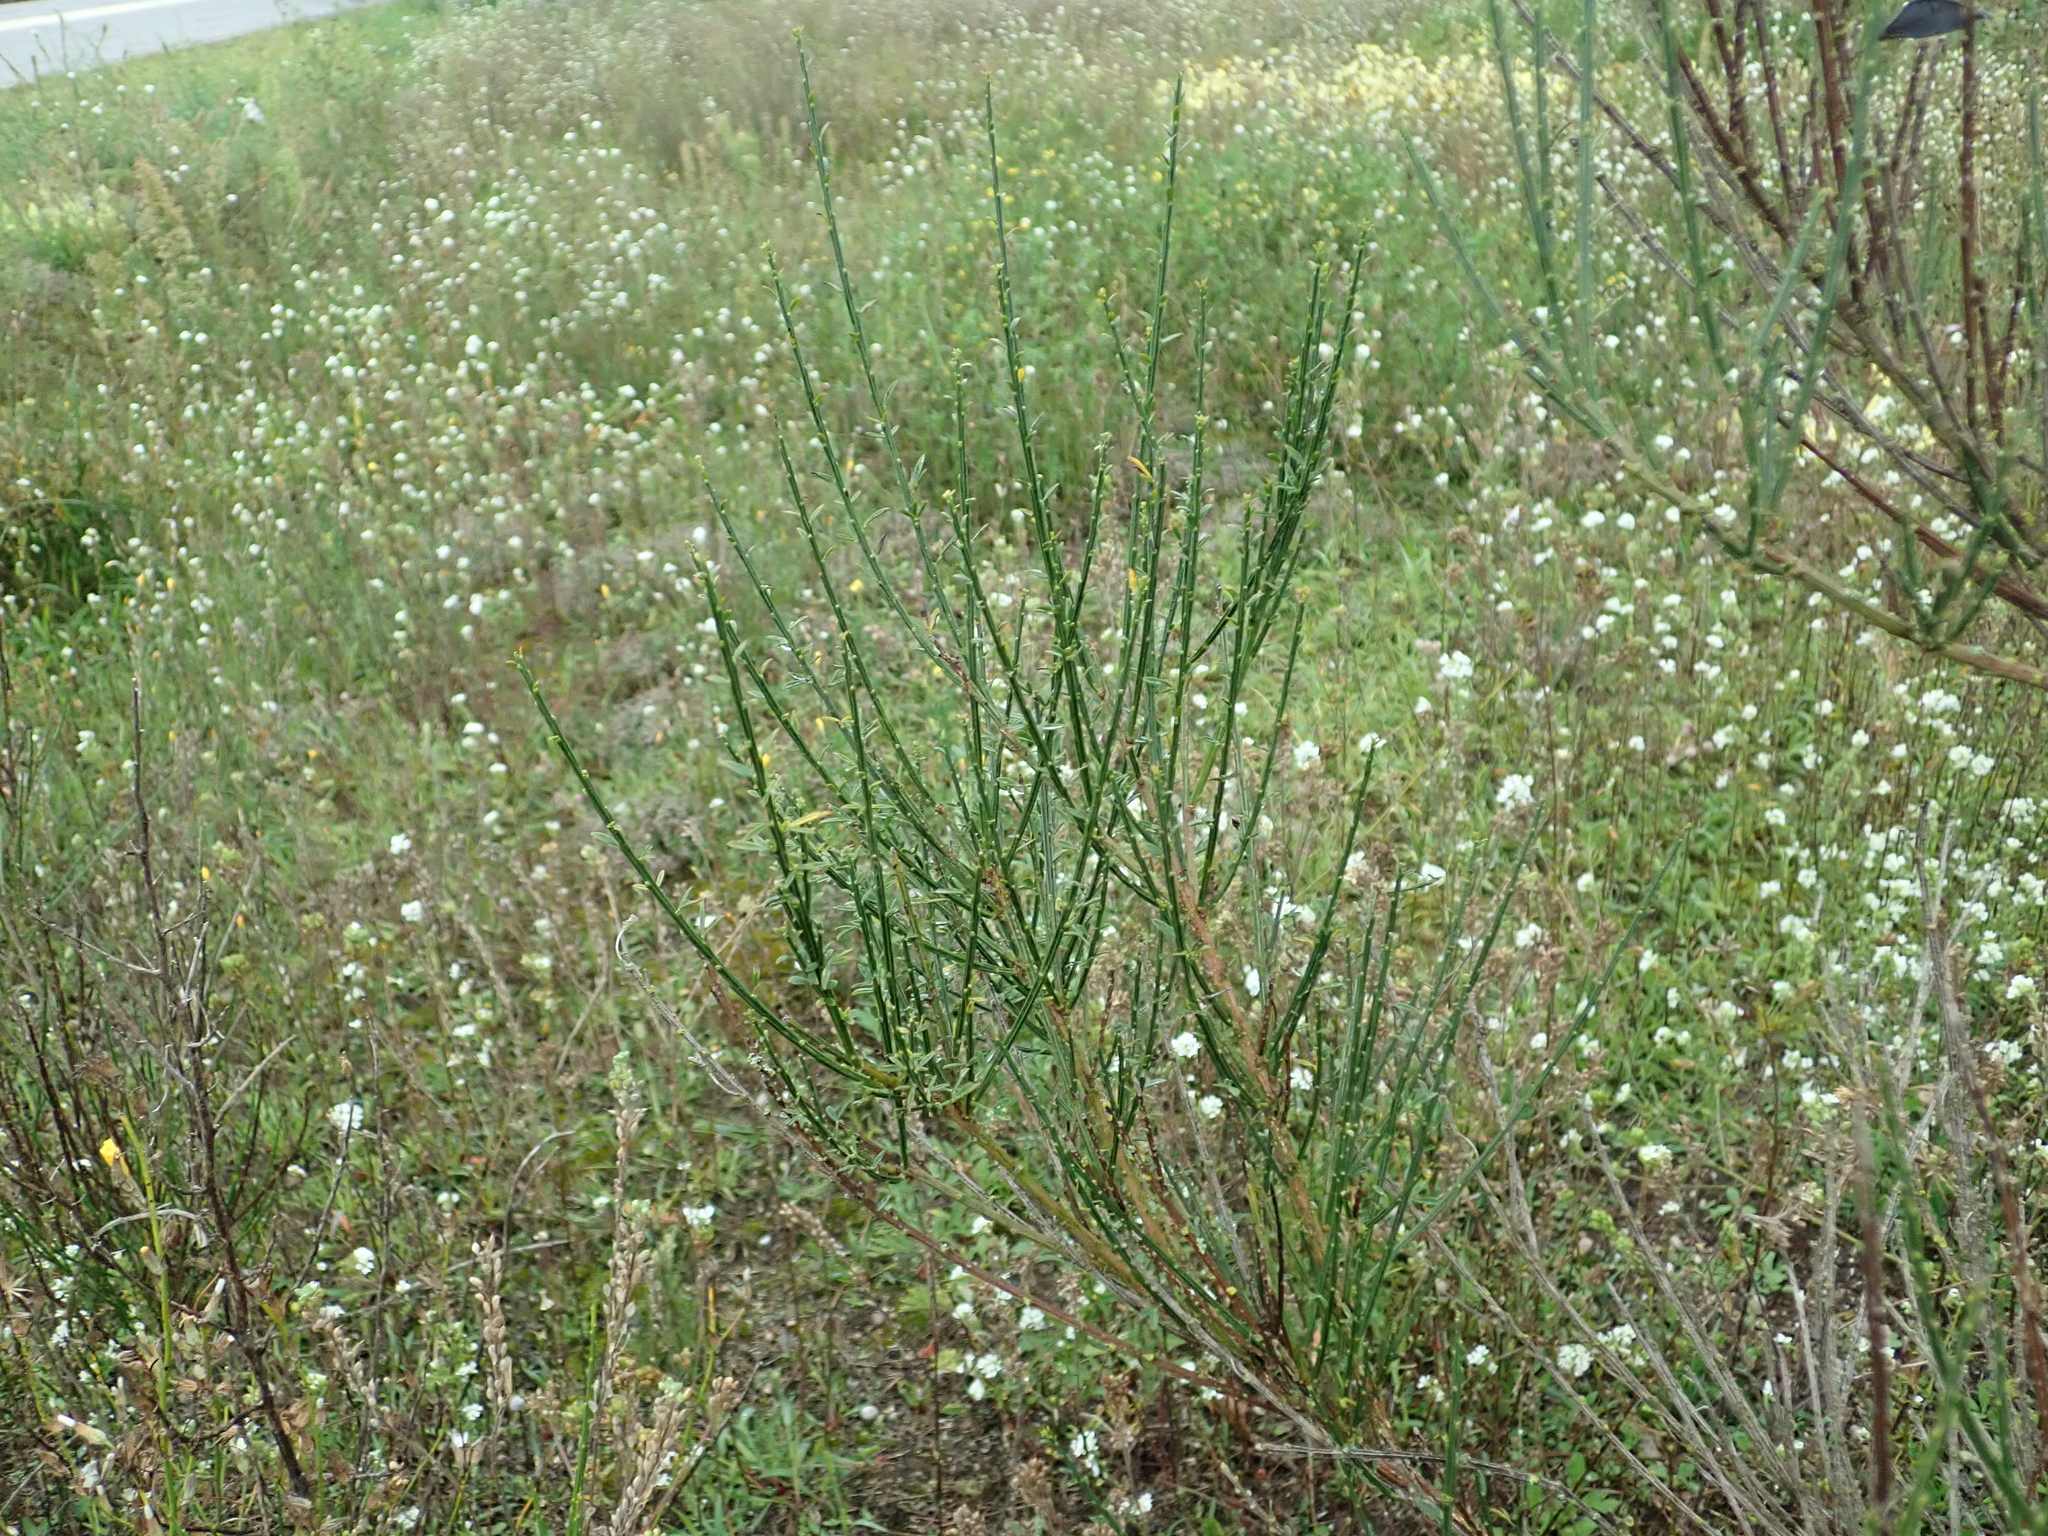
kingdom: Plantae
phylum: Tracheophyta
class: Magnoliopsida
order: Fabales
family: Fabaceae
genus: Cytisus
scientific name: Cytisus scoparius
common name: Scotch broom
